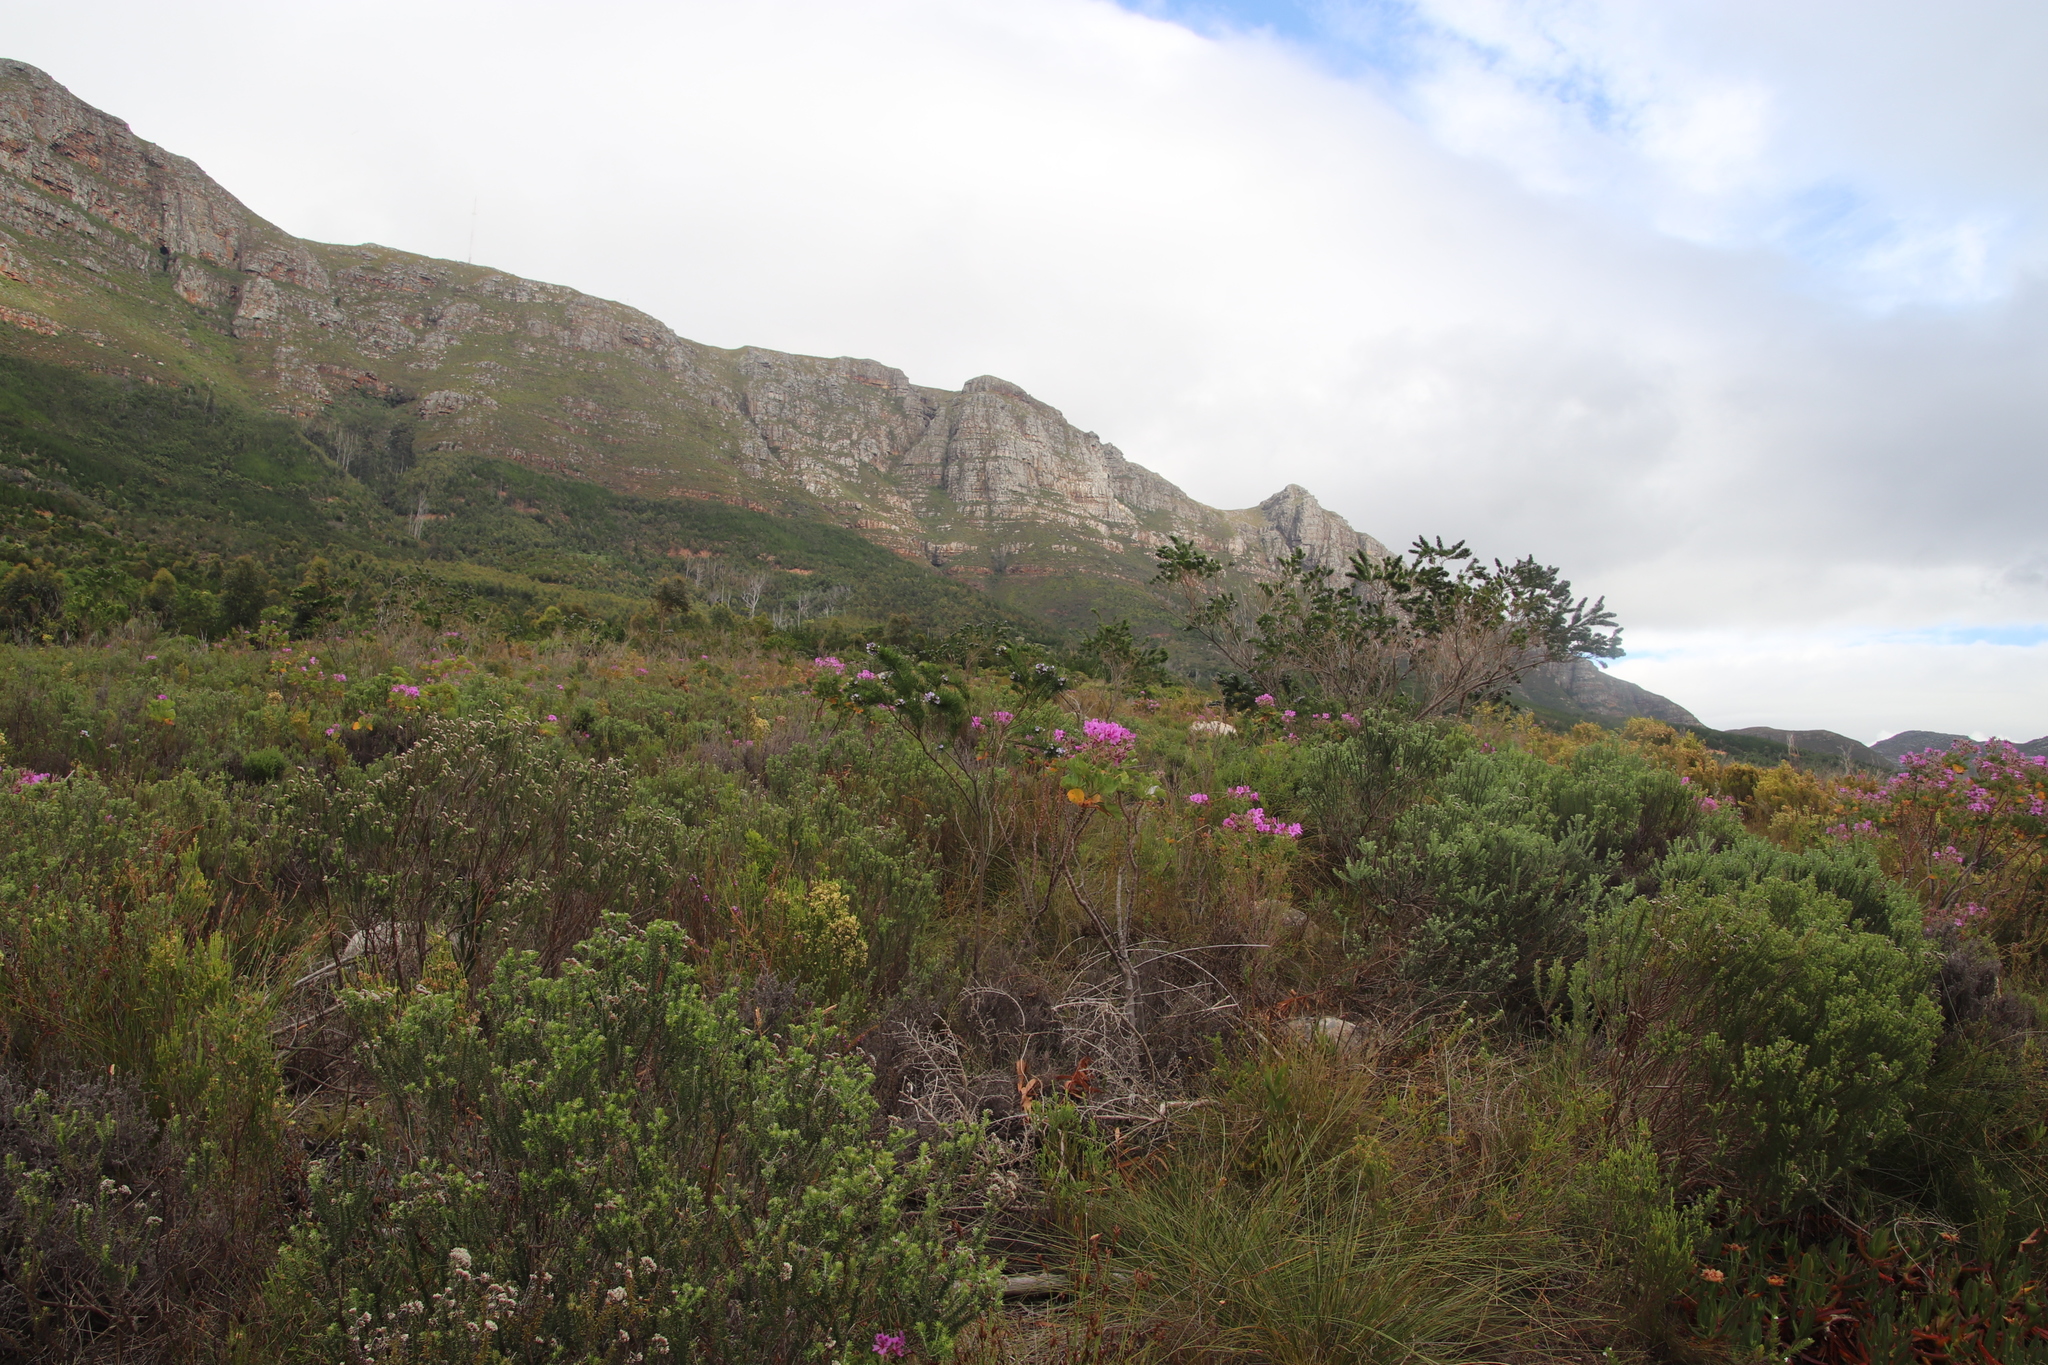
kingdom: Plantae
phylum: Tracheophyta
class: Magnoliopsida
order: Geraniales
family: Geraniaceae
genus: Pelargonium
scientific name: Pelargonium cucullatum
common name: Tree pelargonium
